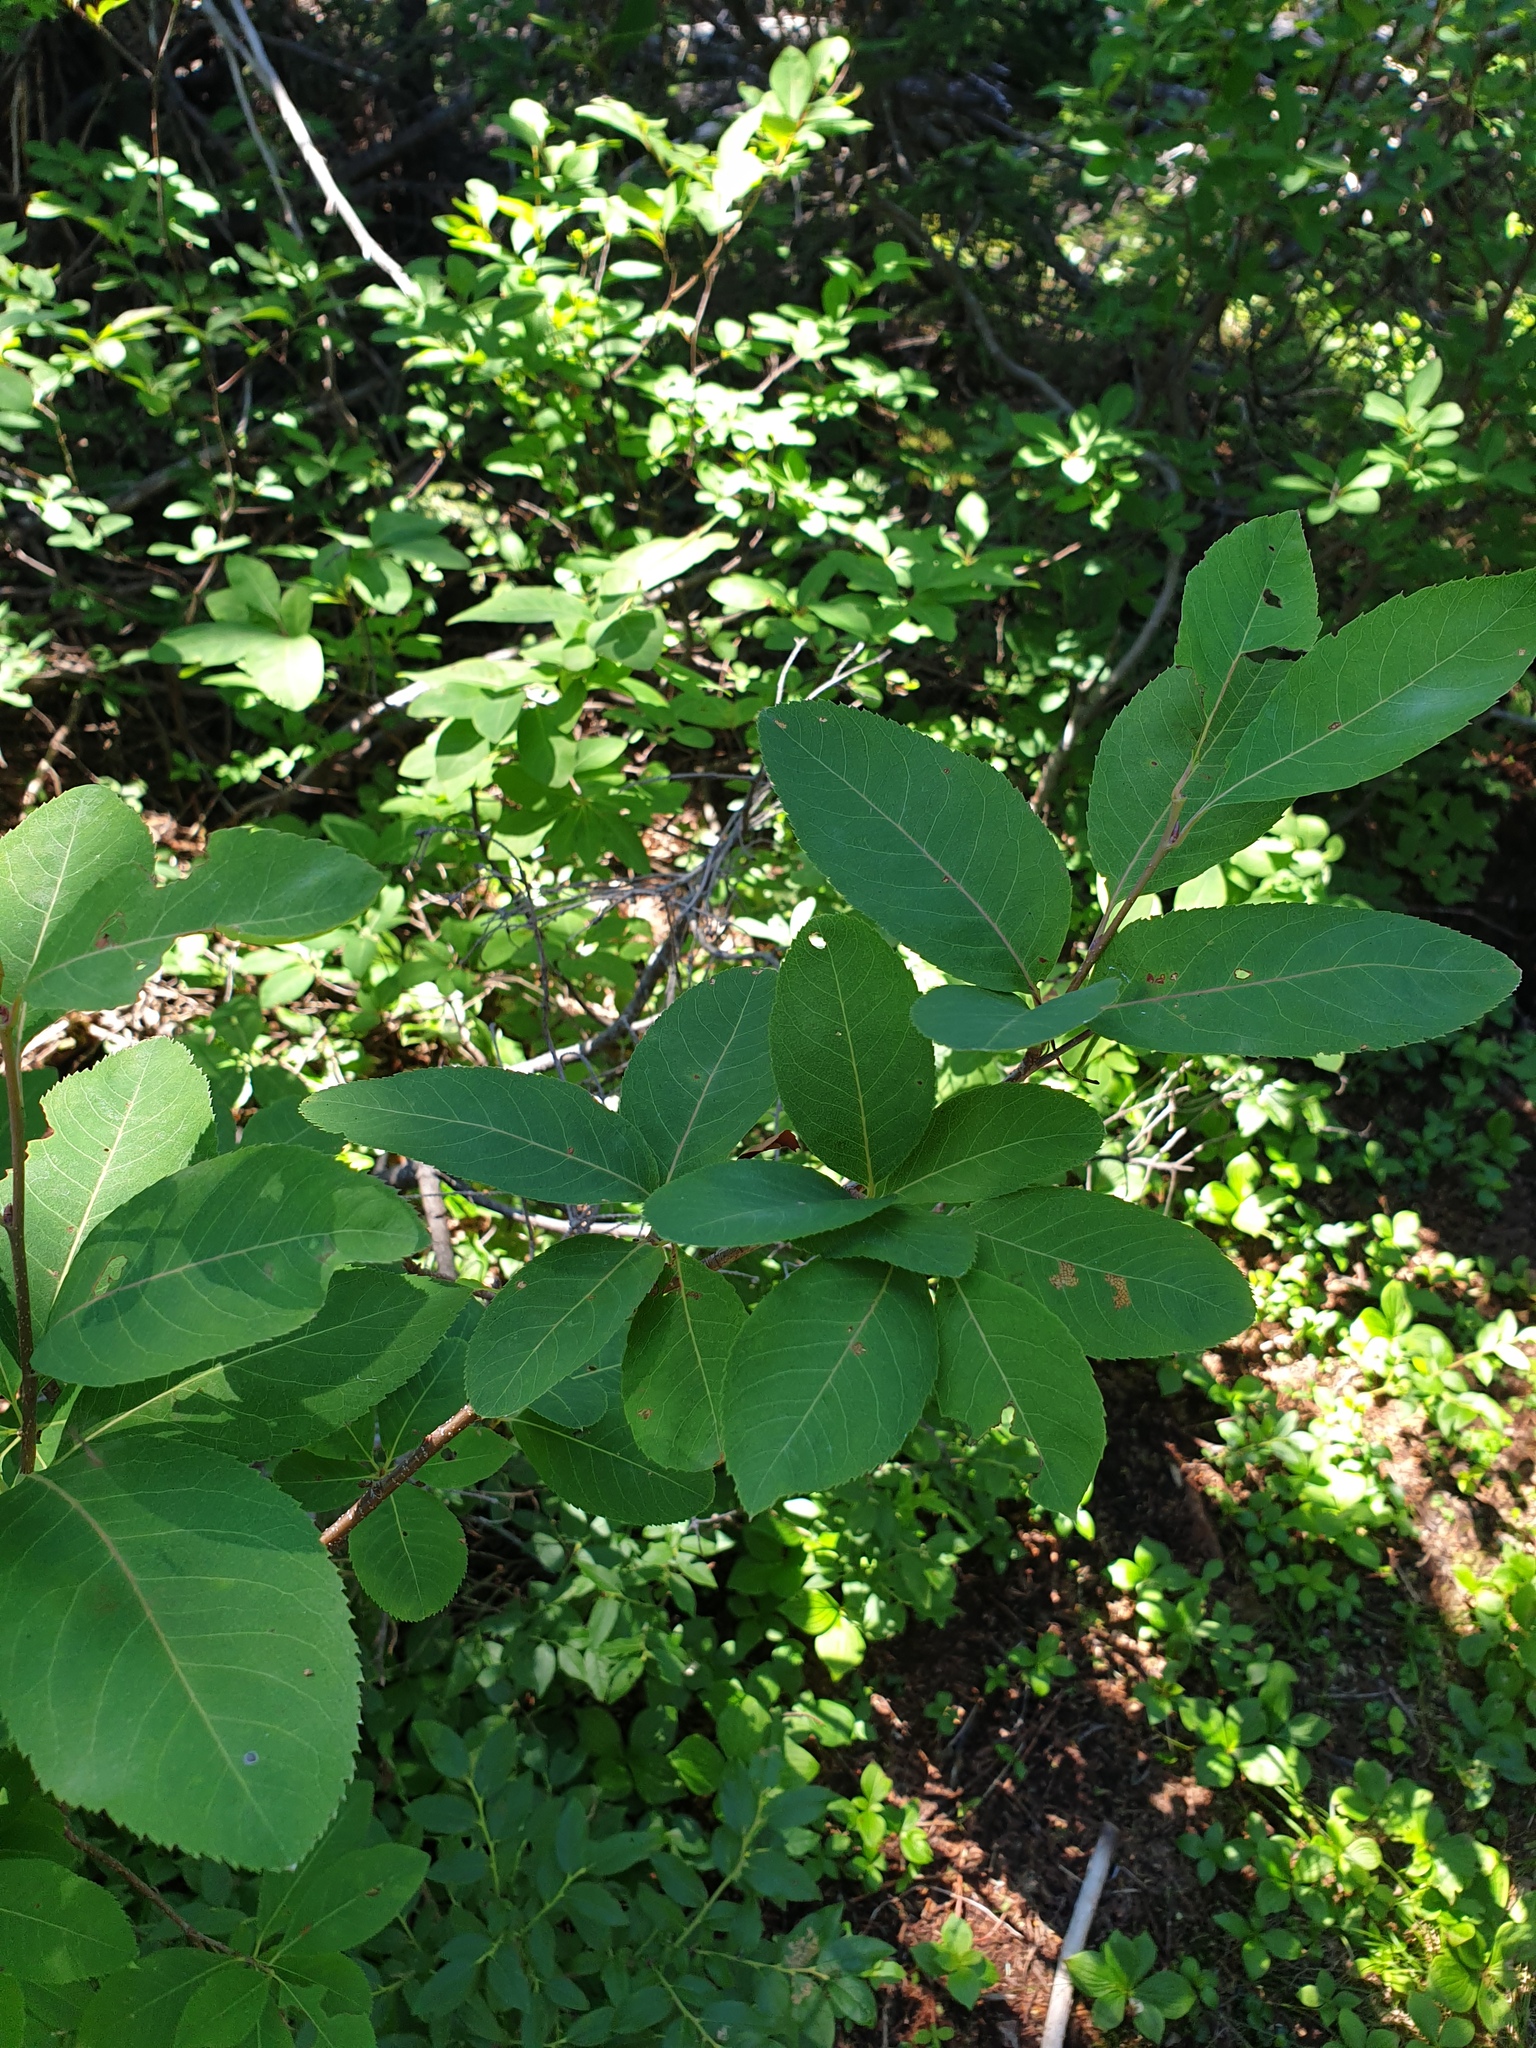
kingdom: Plantae
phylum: Tracheophyta
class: Magnoliopsida
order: Rosales
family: Rosaceae
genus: Amelanchier
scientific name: Amelanchier bartramiana
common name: Mountain serviceberry
